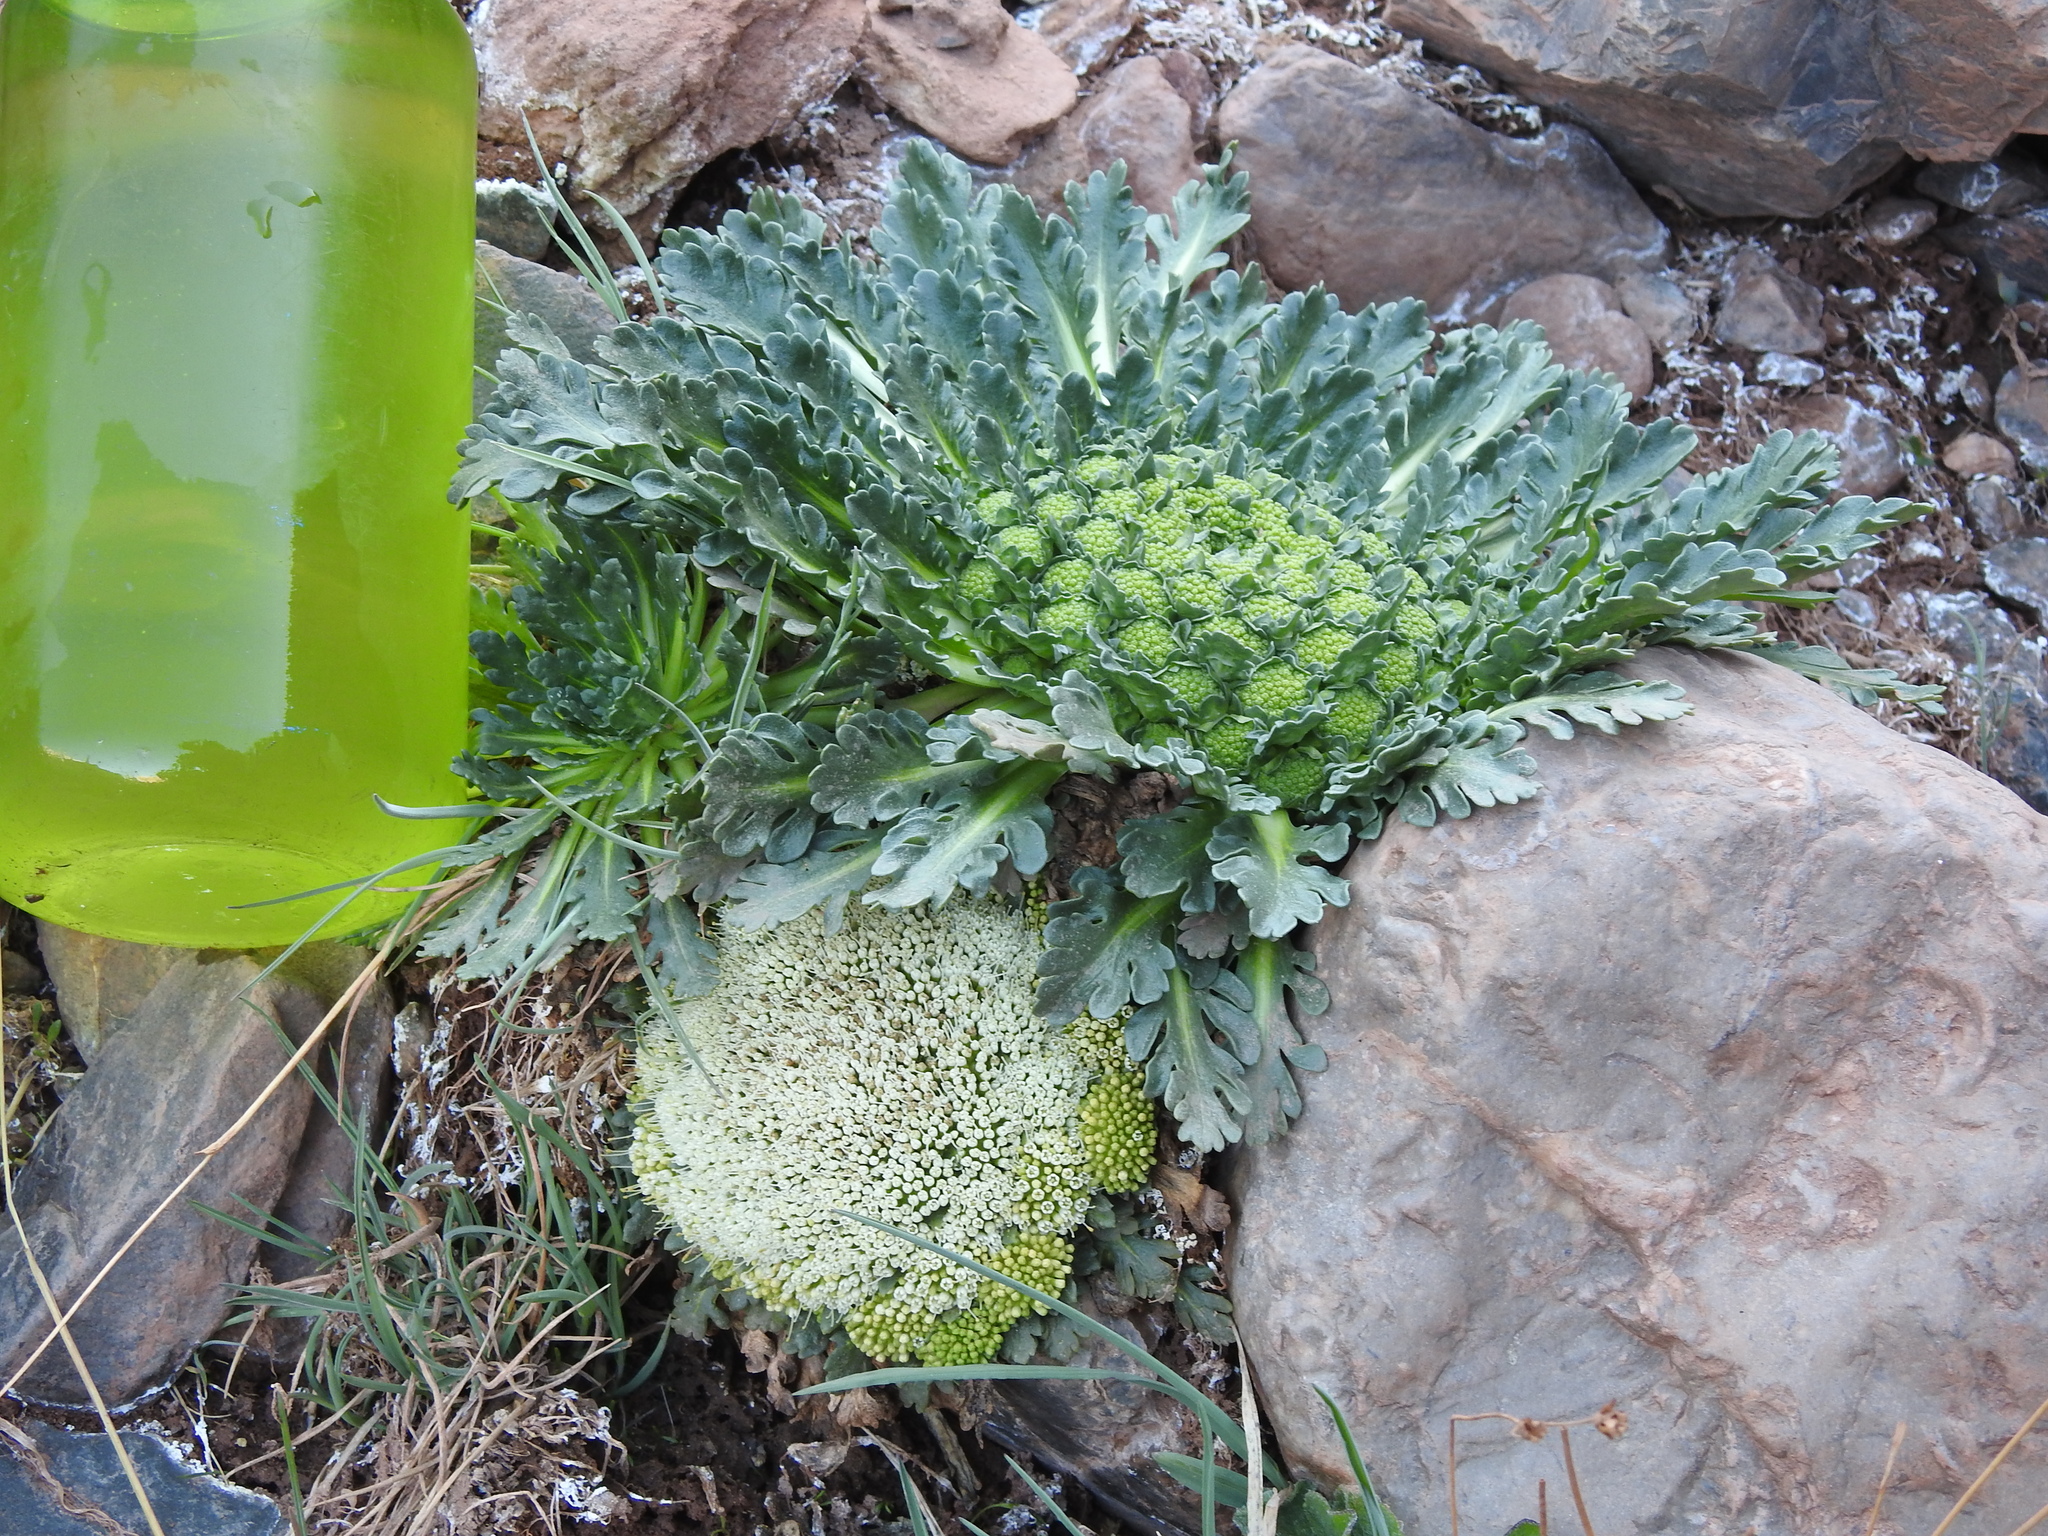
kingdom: Plantae
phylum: Tracheophyta
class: Magnoliopsida
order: Asterales
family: Calyceraceae
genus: Gamocarpha
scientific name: Gamocarpha ventosa
